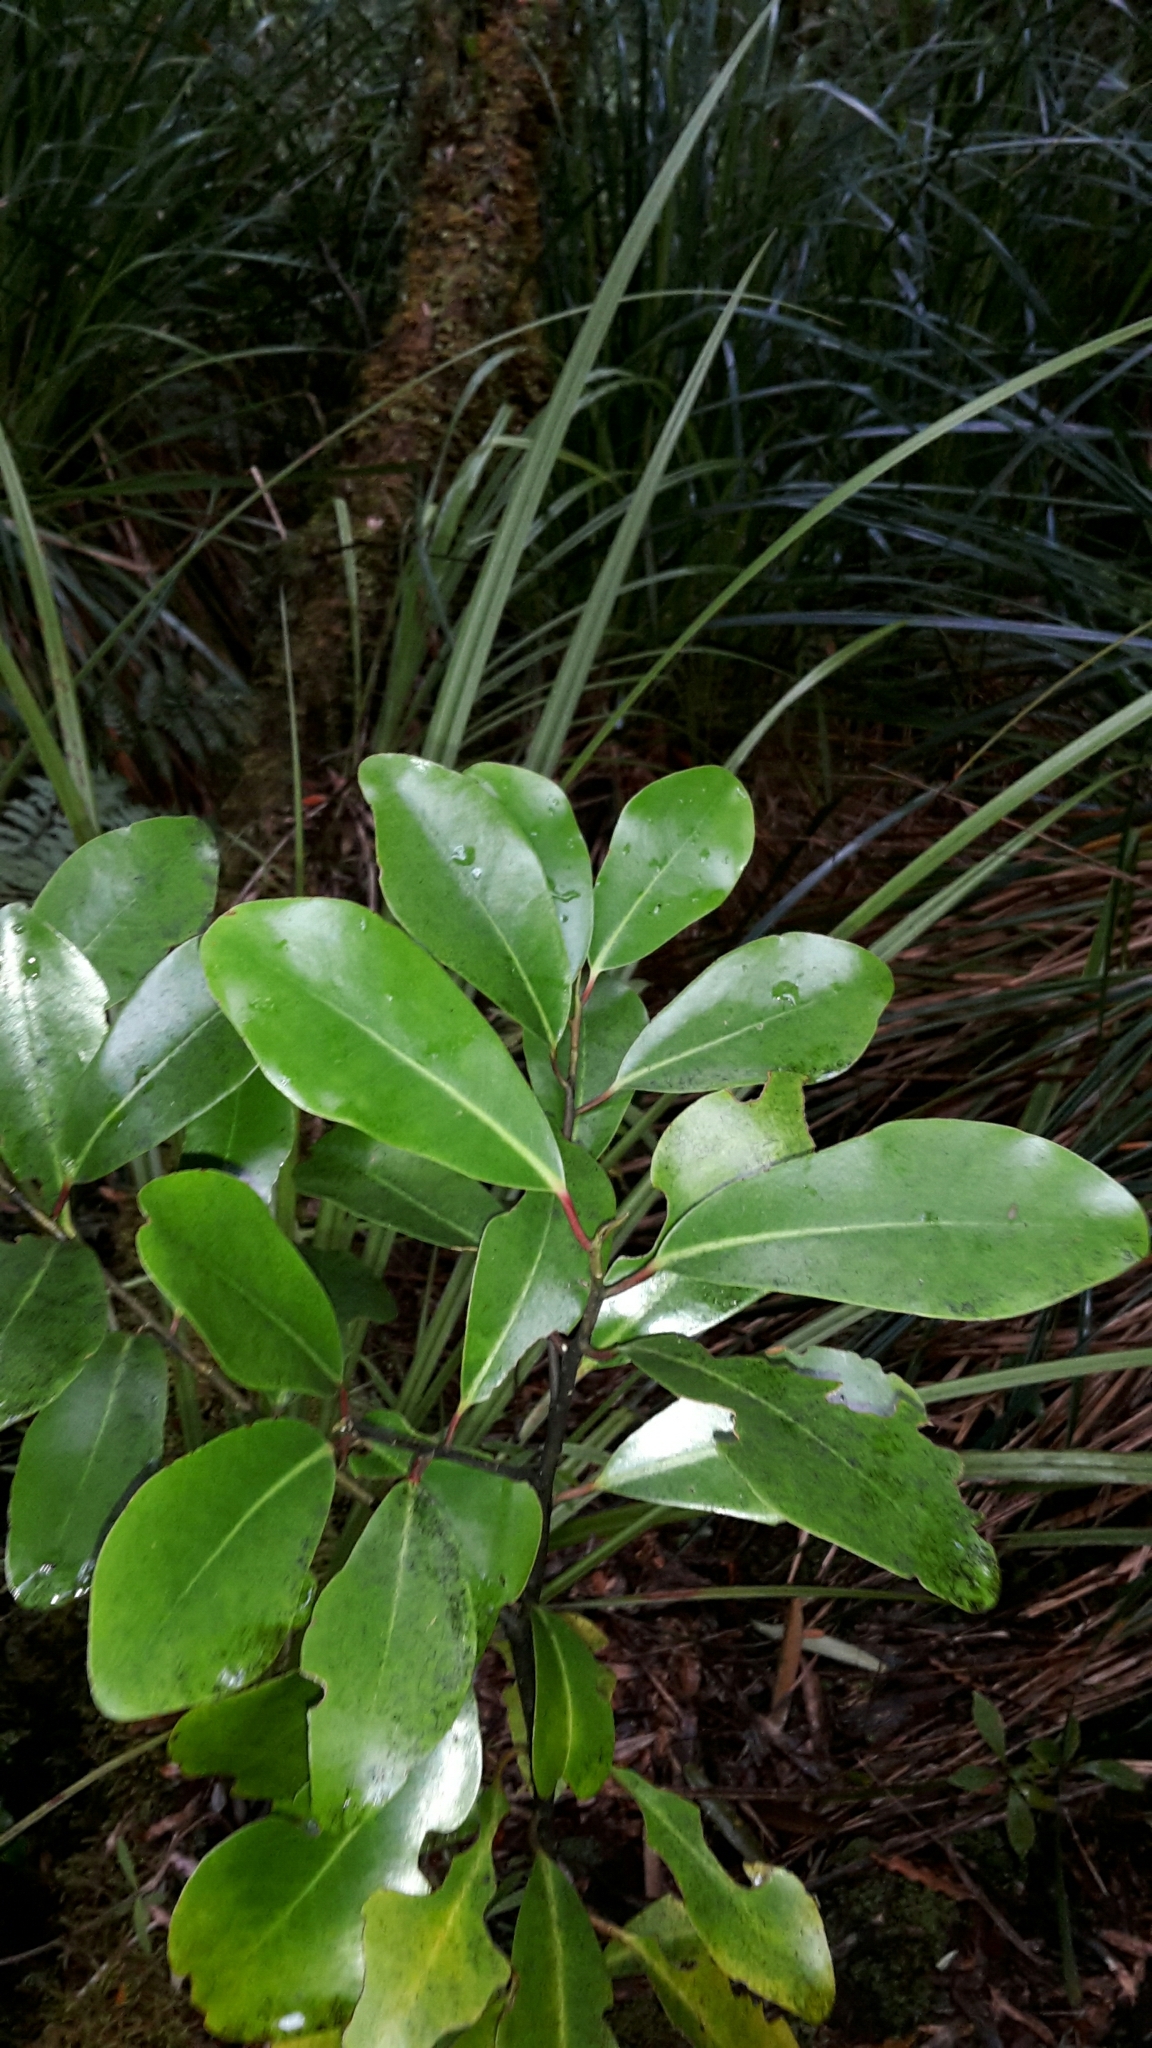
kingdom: Plantae
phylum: Tracheophyta
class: Magnoliopsida
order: Canellales
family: Winteraceae
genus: Pseudowintera
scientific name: Pseudowintera axillaris
